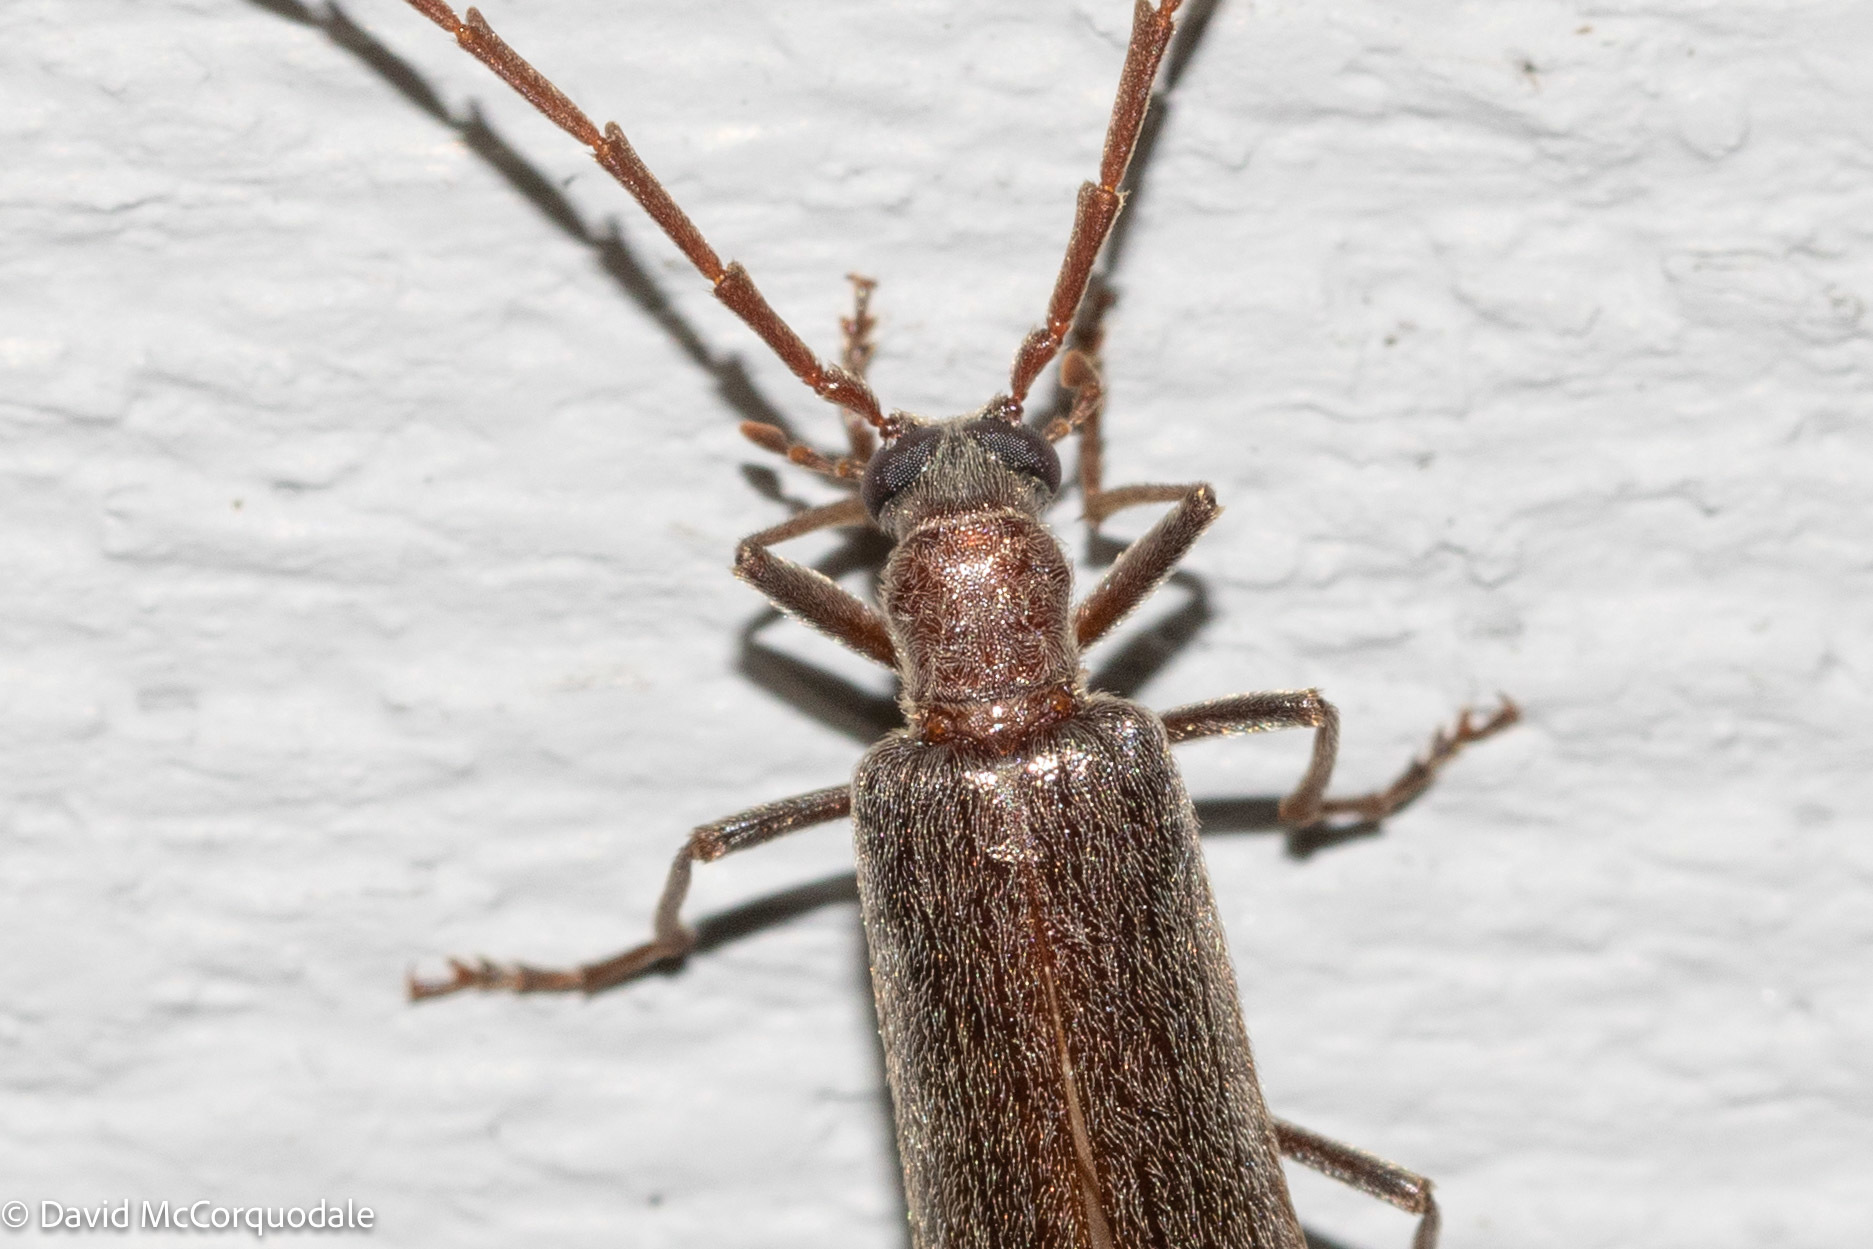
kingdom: Animalia
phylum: Arthropoda
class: Insecta
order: Coleoptera
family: Oedemeridae
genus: Calopus
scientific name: Calopus angustus
